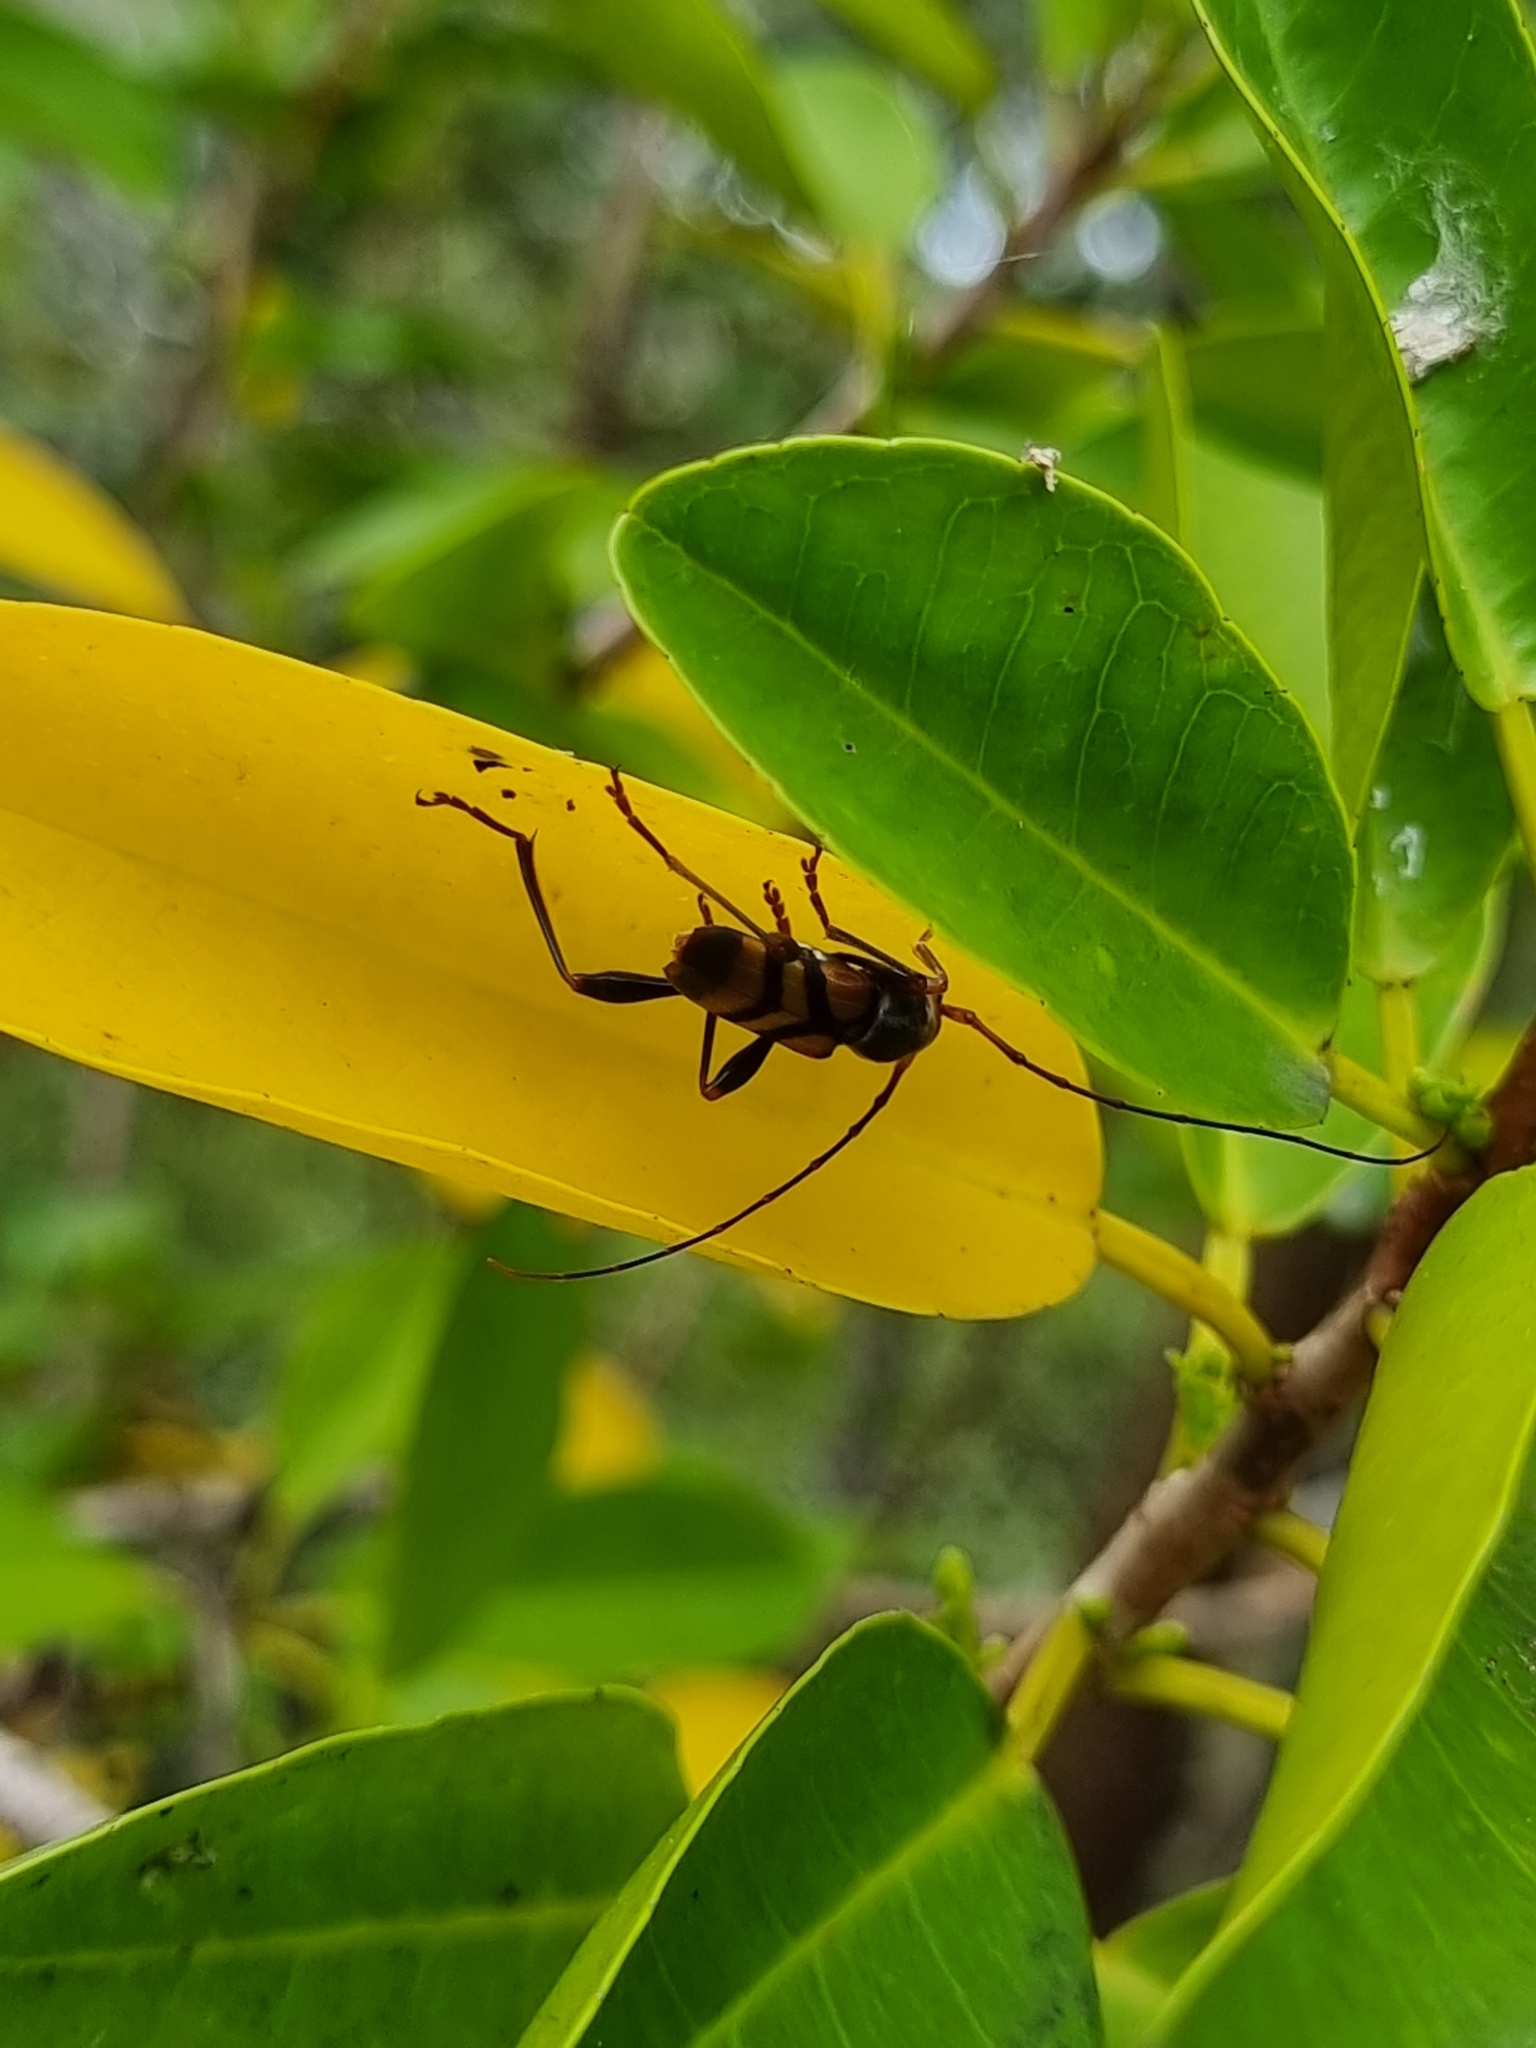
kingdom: Animalia
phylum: Arthropoda
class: Insecta
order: Coleoptera
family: Cerambycidae
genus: Aridaeus
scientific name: Aridaeus thoracicus
